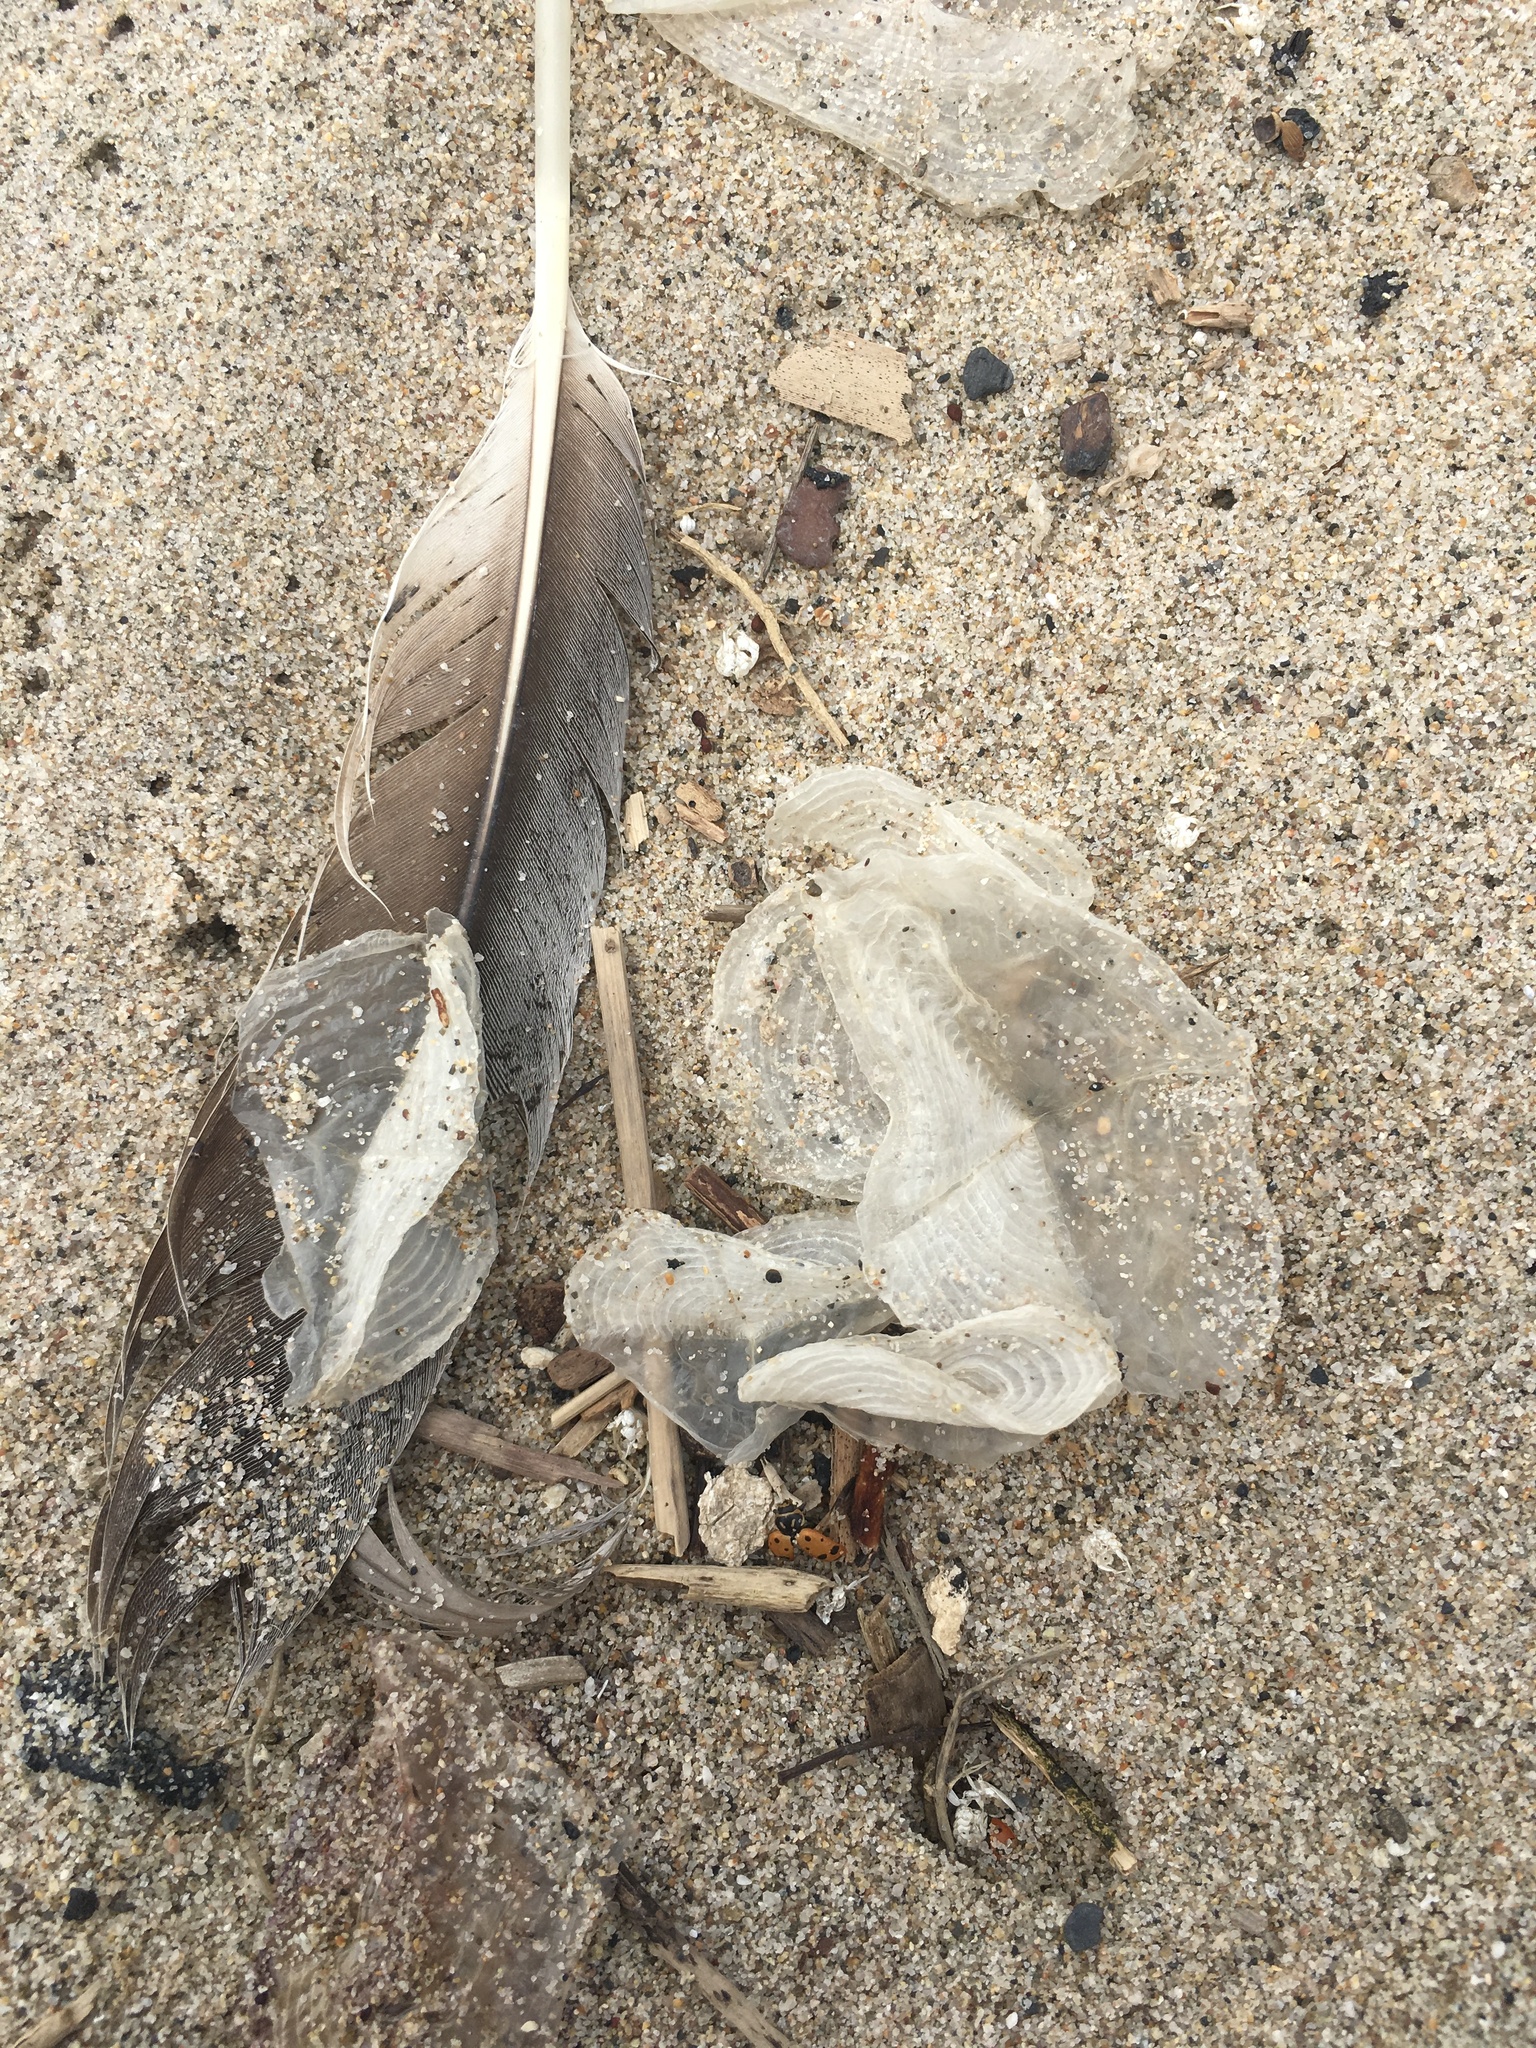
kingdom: Animalia
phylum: Cnidaria
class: Hydrozoa
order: Anthoathecata
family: Porpitidae
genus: Velella
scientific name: Velella velella
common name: By-the-wind-sailor
